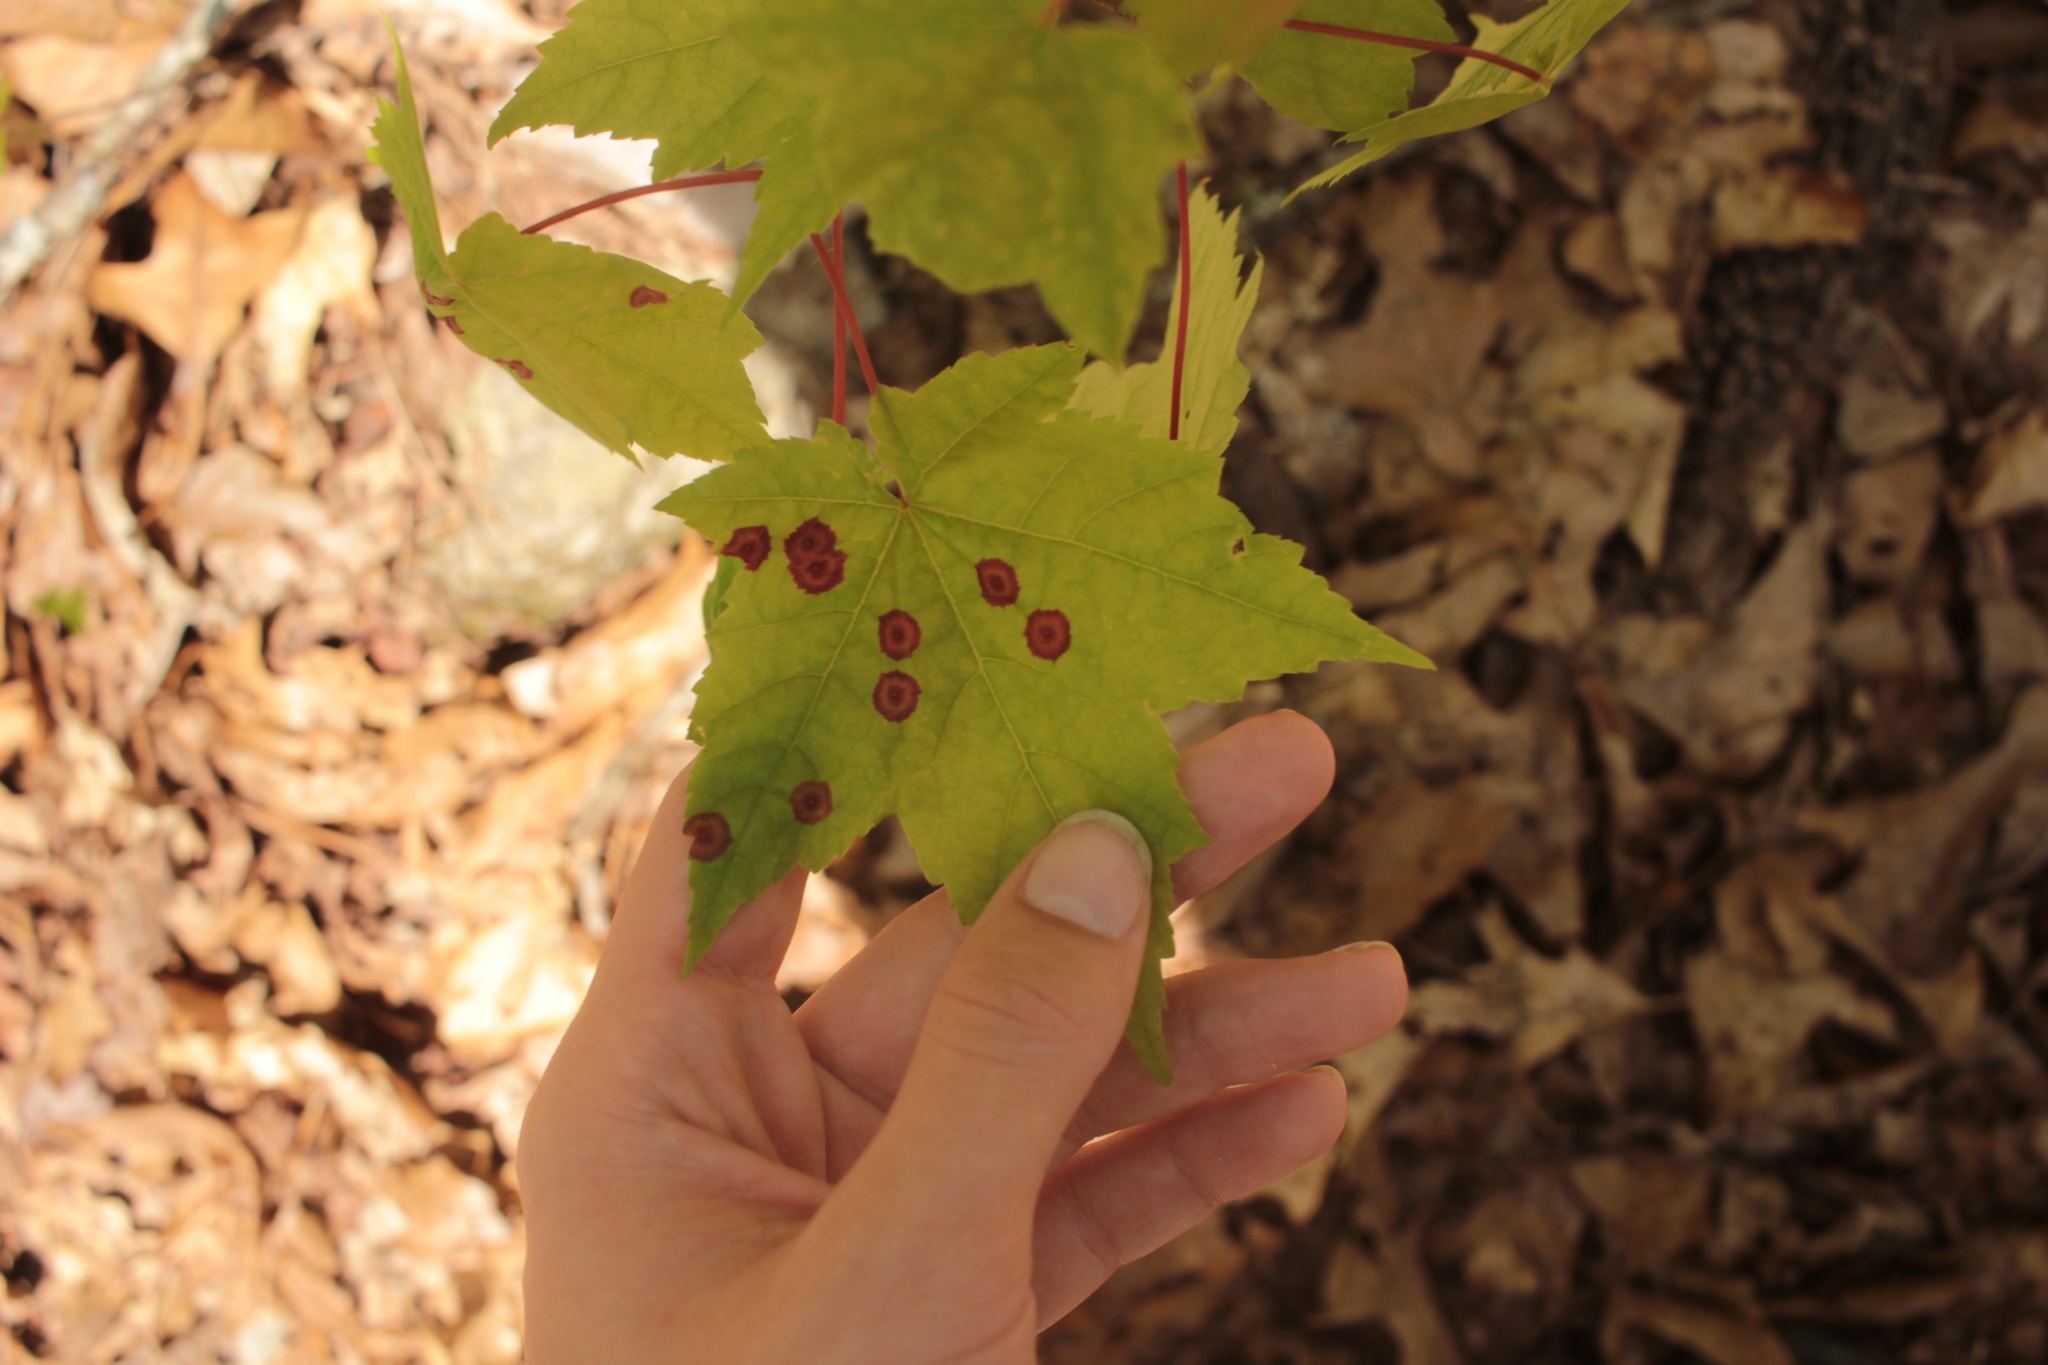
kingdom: Animalia
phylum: Arthropoda
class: Insecta
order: Diptera
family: Cecidomyiidae
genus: Acericecis
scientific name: Acericecis ocellaris
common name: Ocellate gall midge
